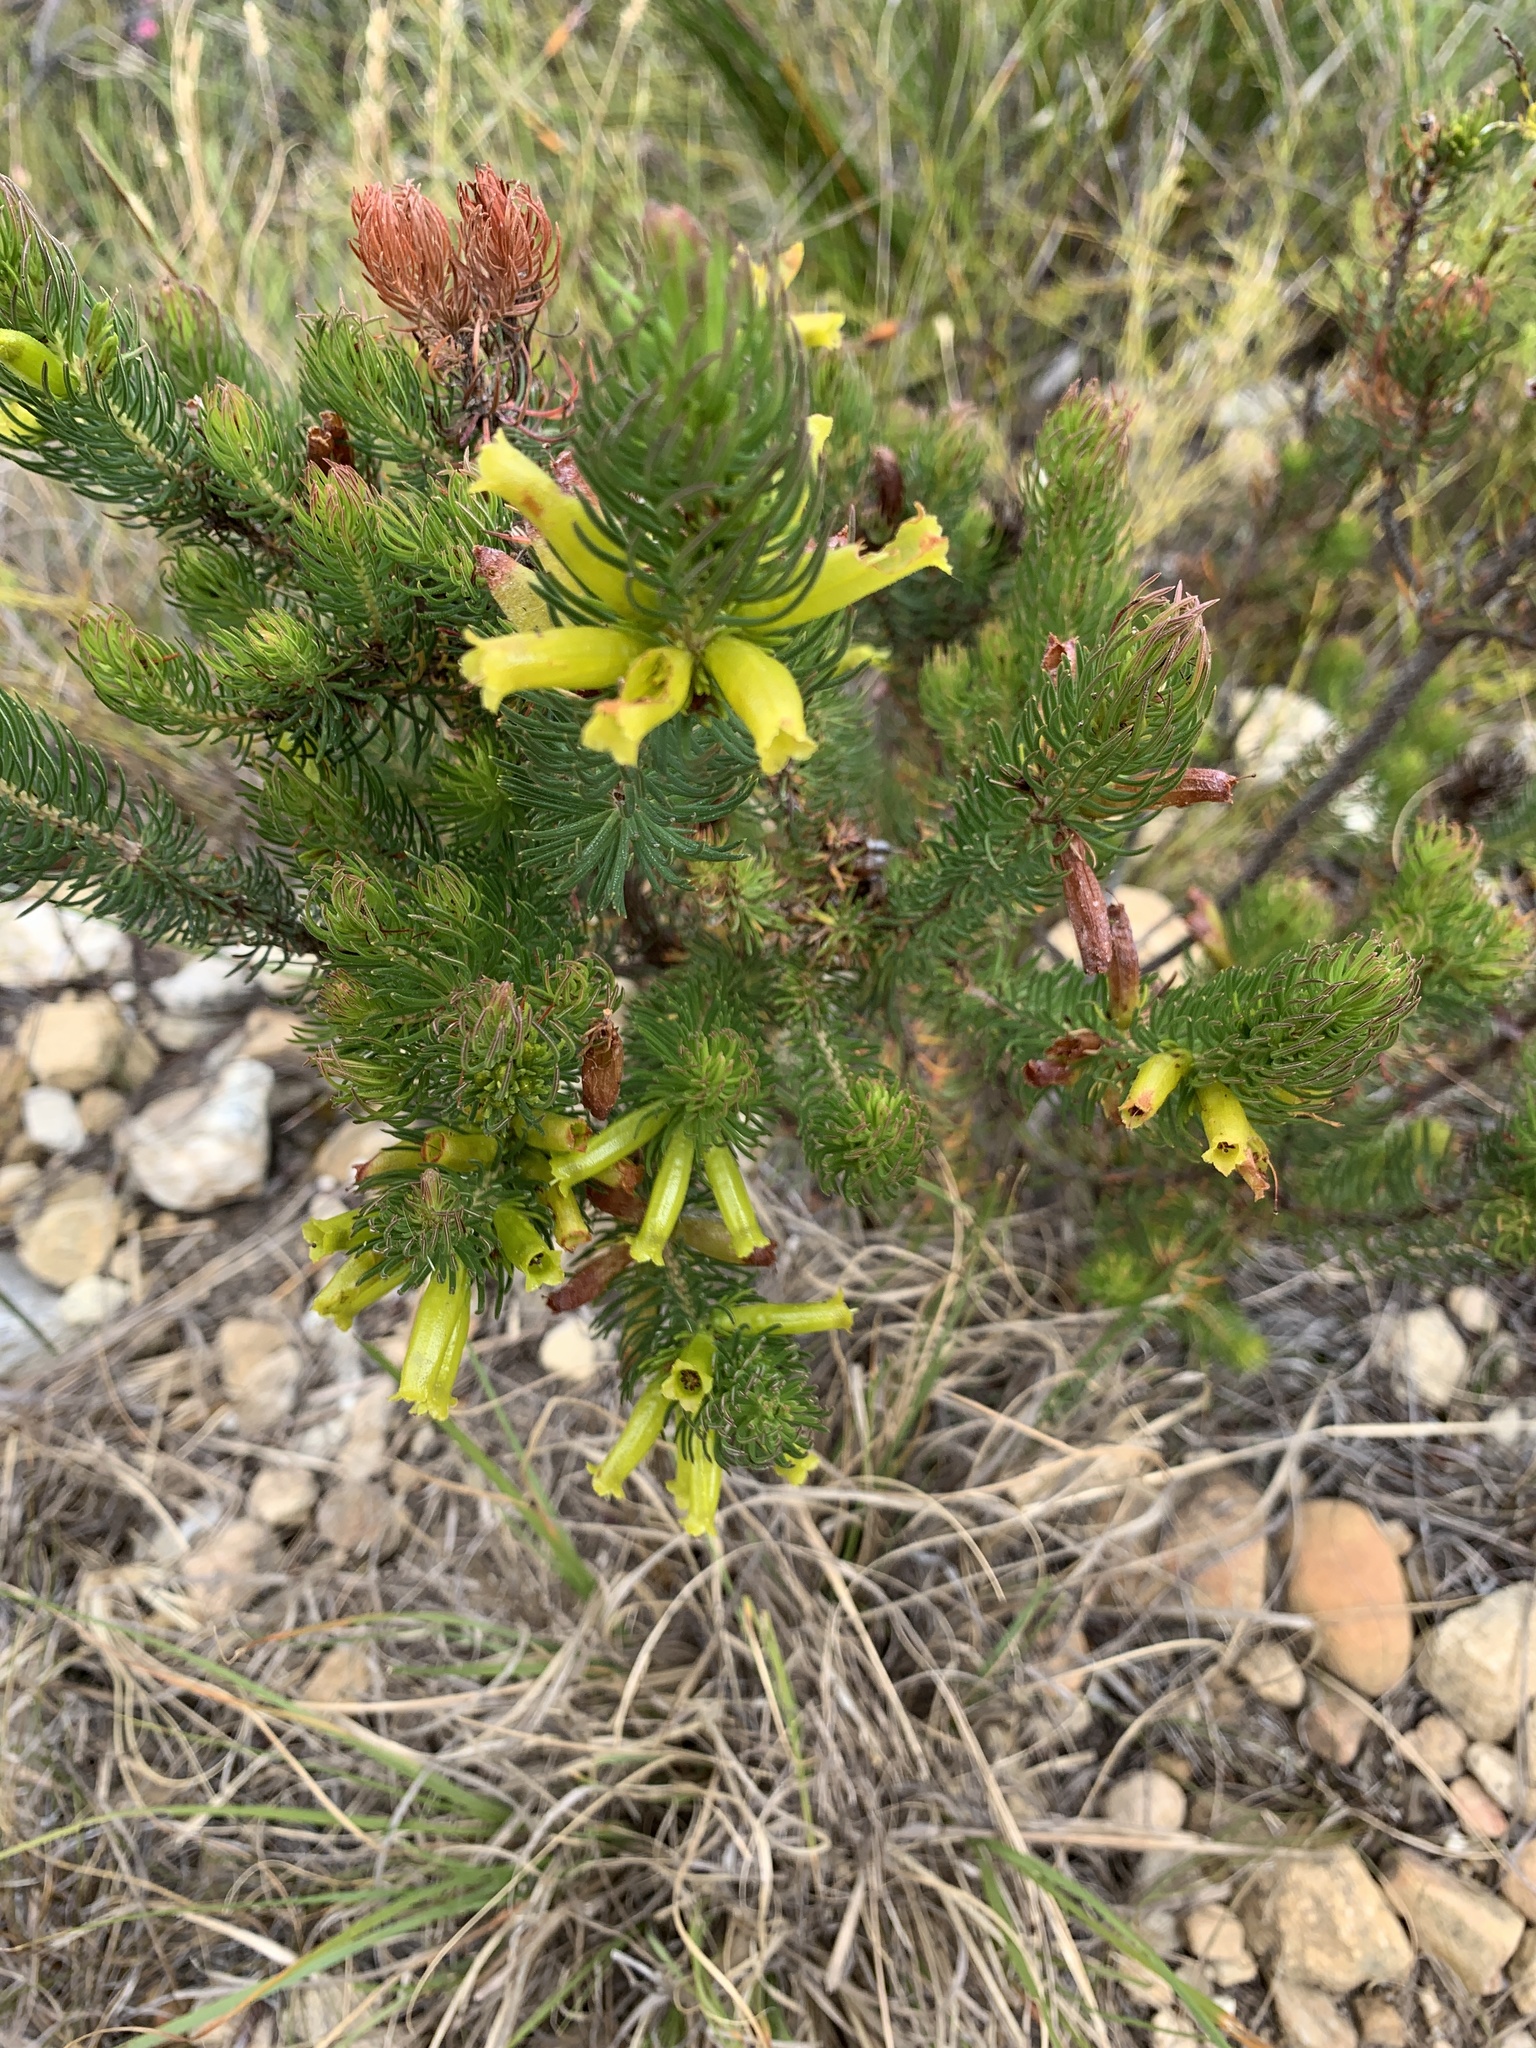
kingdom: Plantae
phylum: Tracheophyta
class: Magnoliopsida
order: Ericales
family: Ericaceae
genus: Erica
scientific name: Erica viscaria
